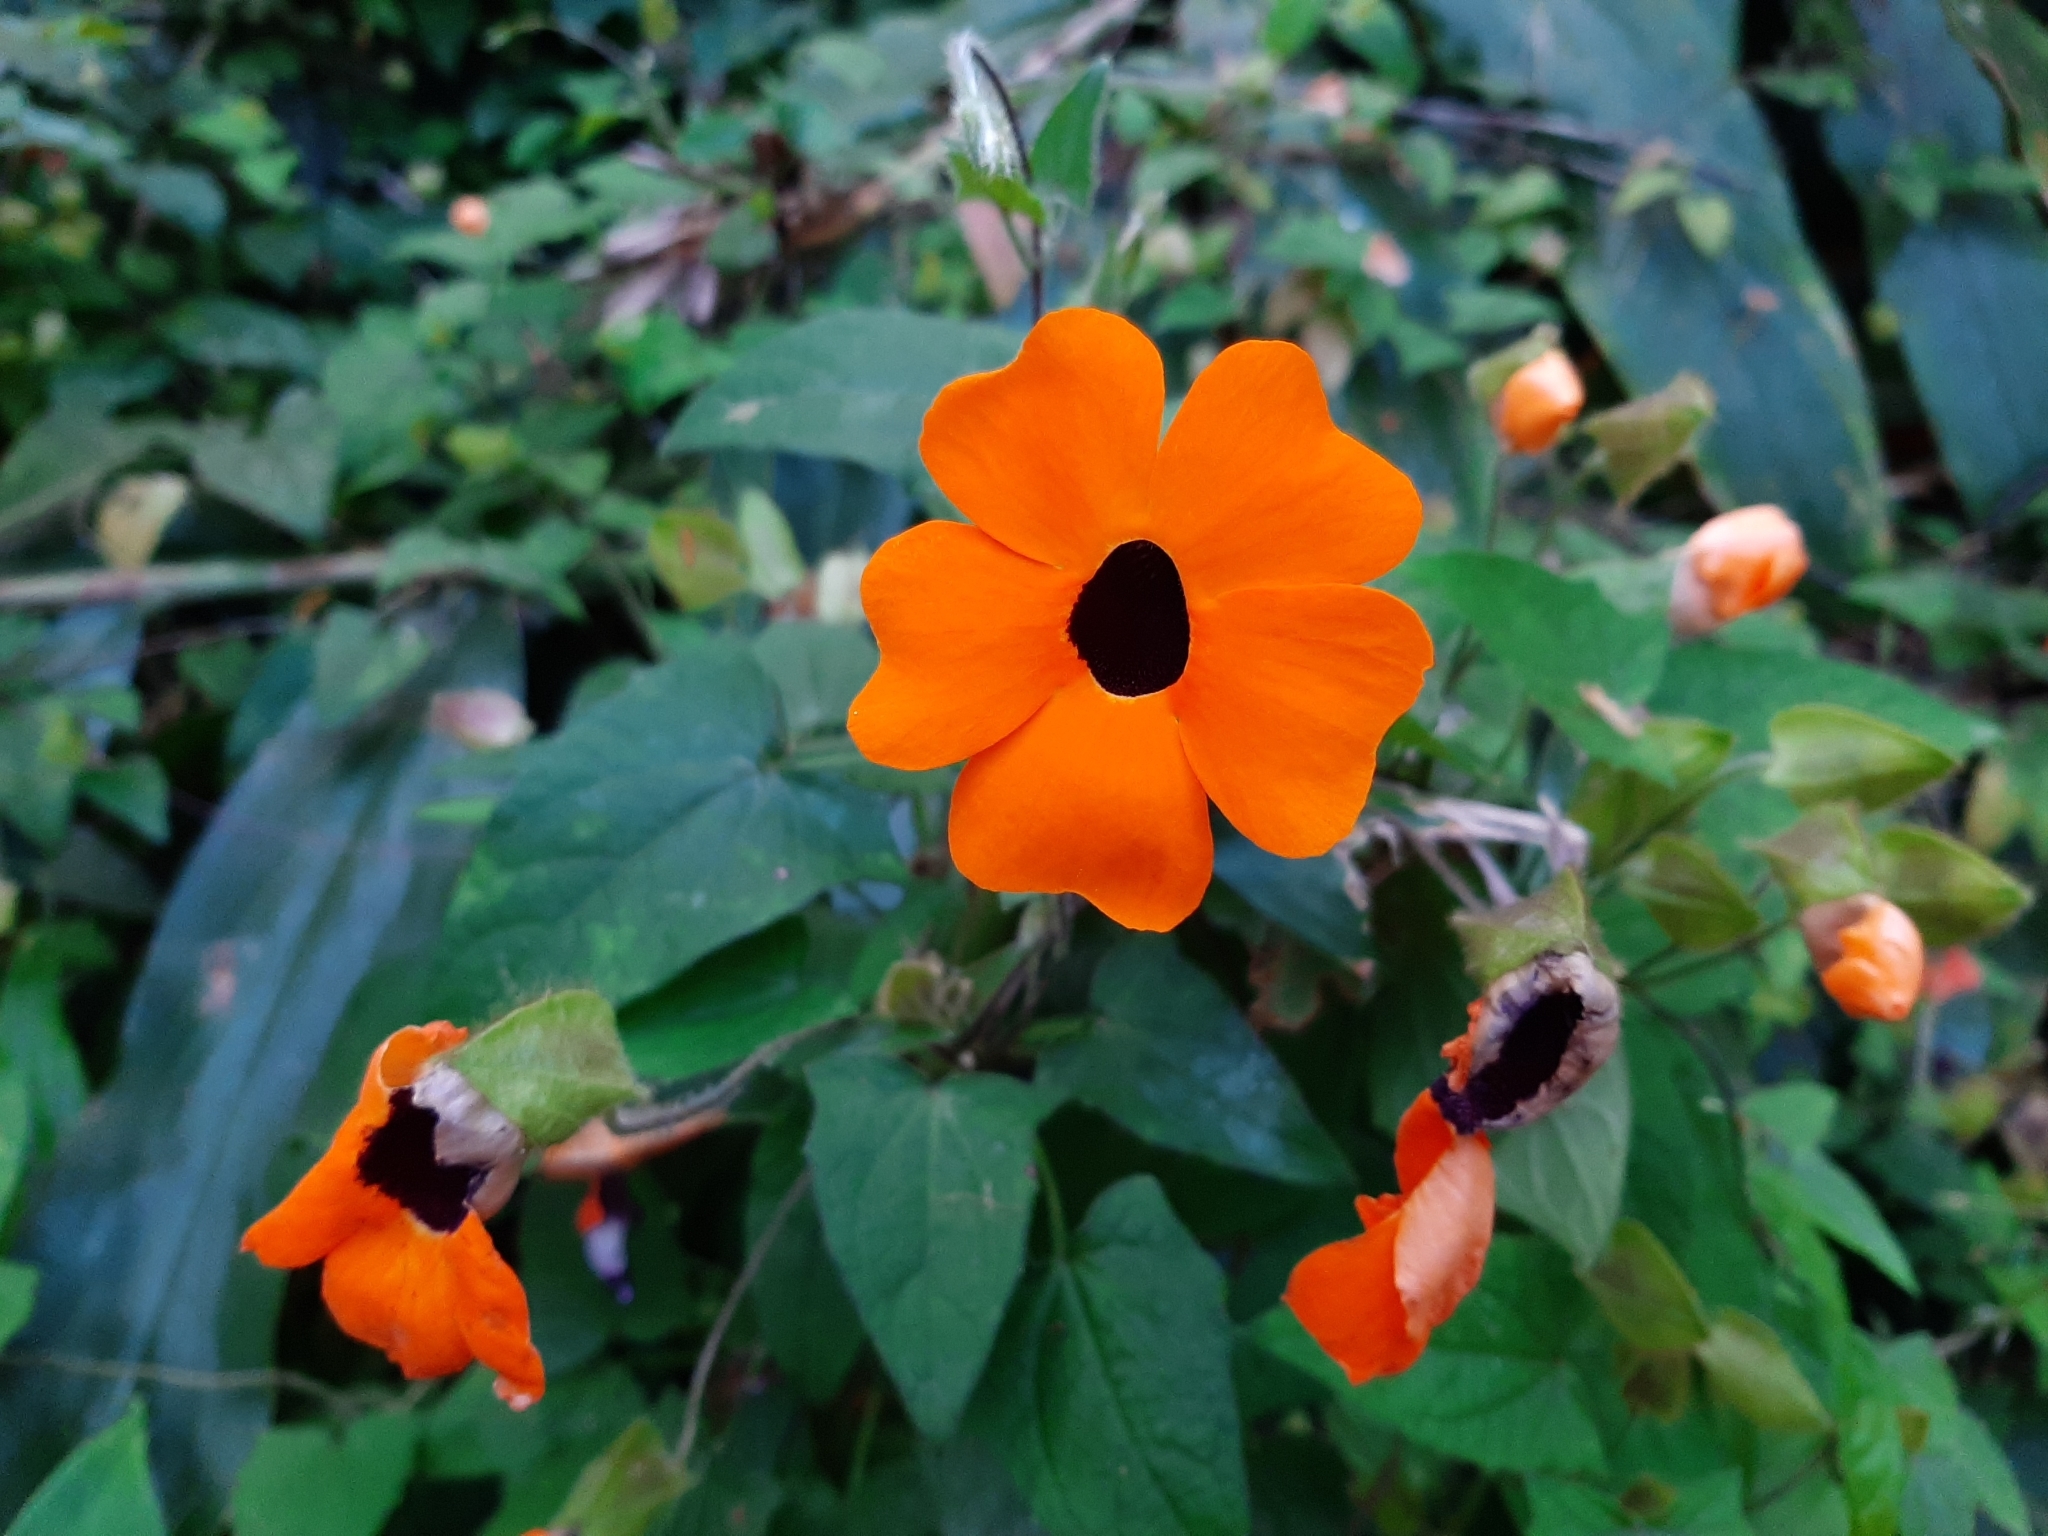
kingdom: Plantae
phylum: Tracheophyta
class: Magnoliopsida
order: Lamiales
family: Acanthaceae
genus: Thunbergia
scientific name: Thunbergia alata
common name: Blackeyed susan vine
